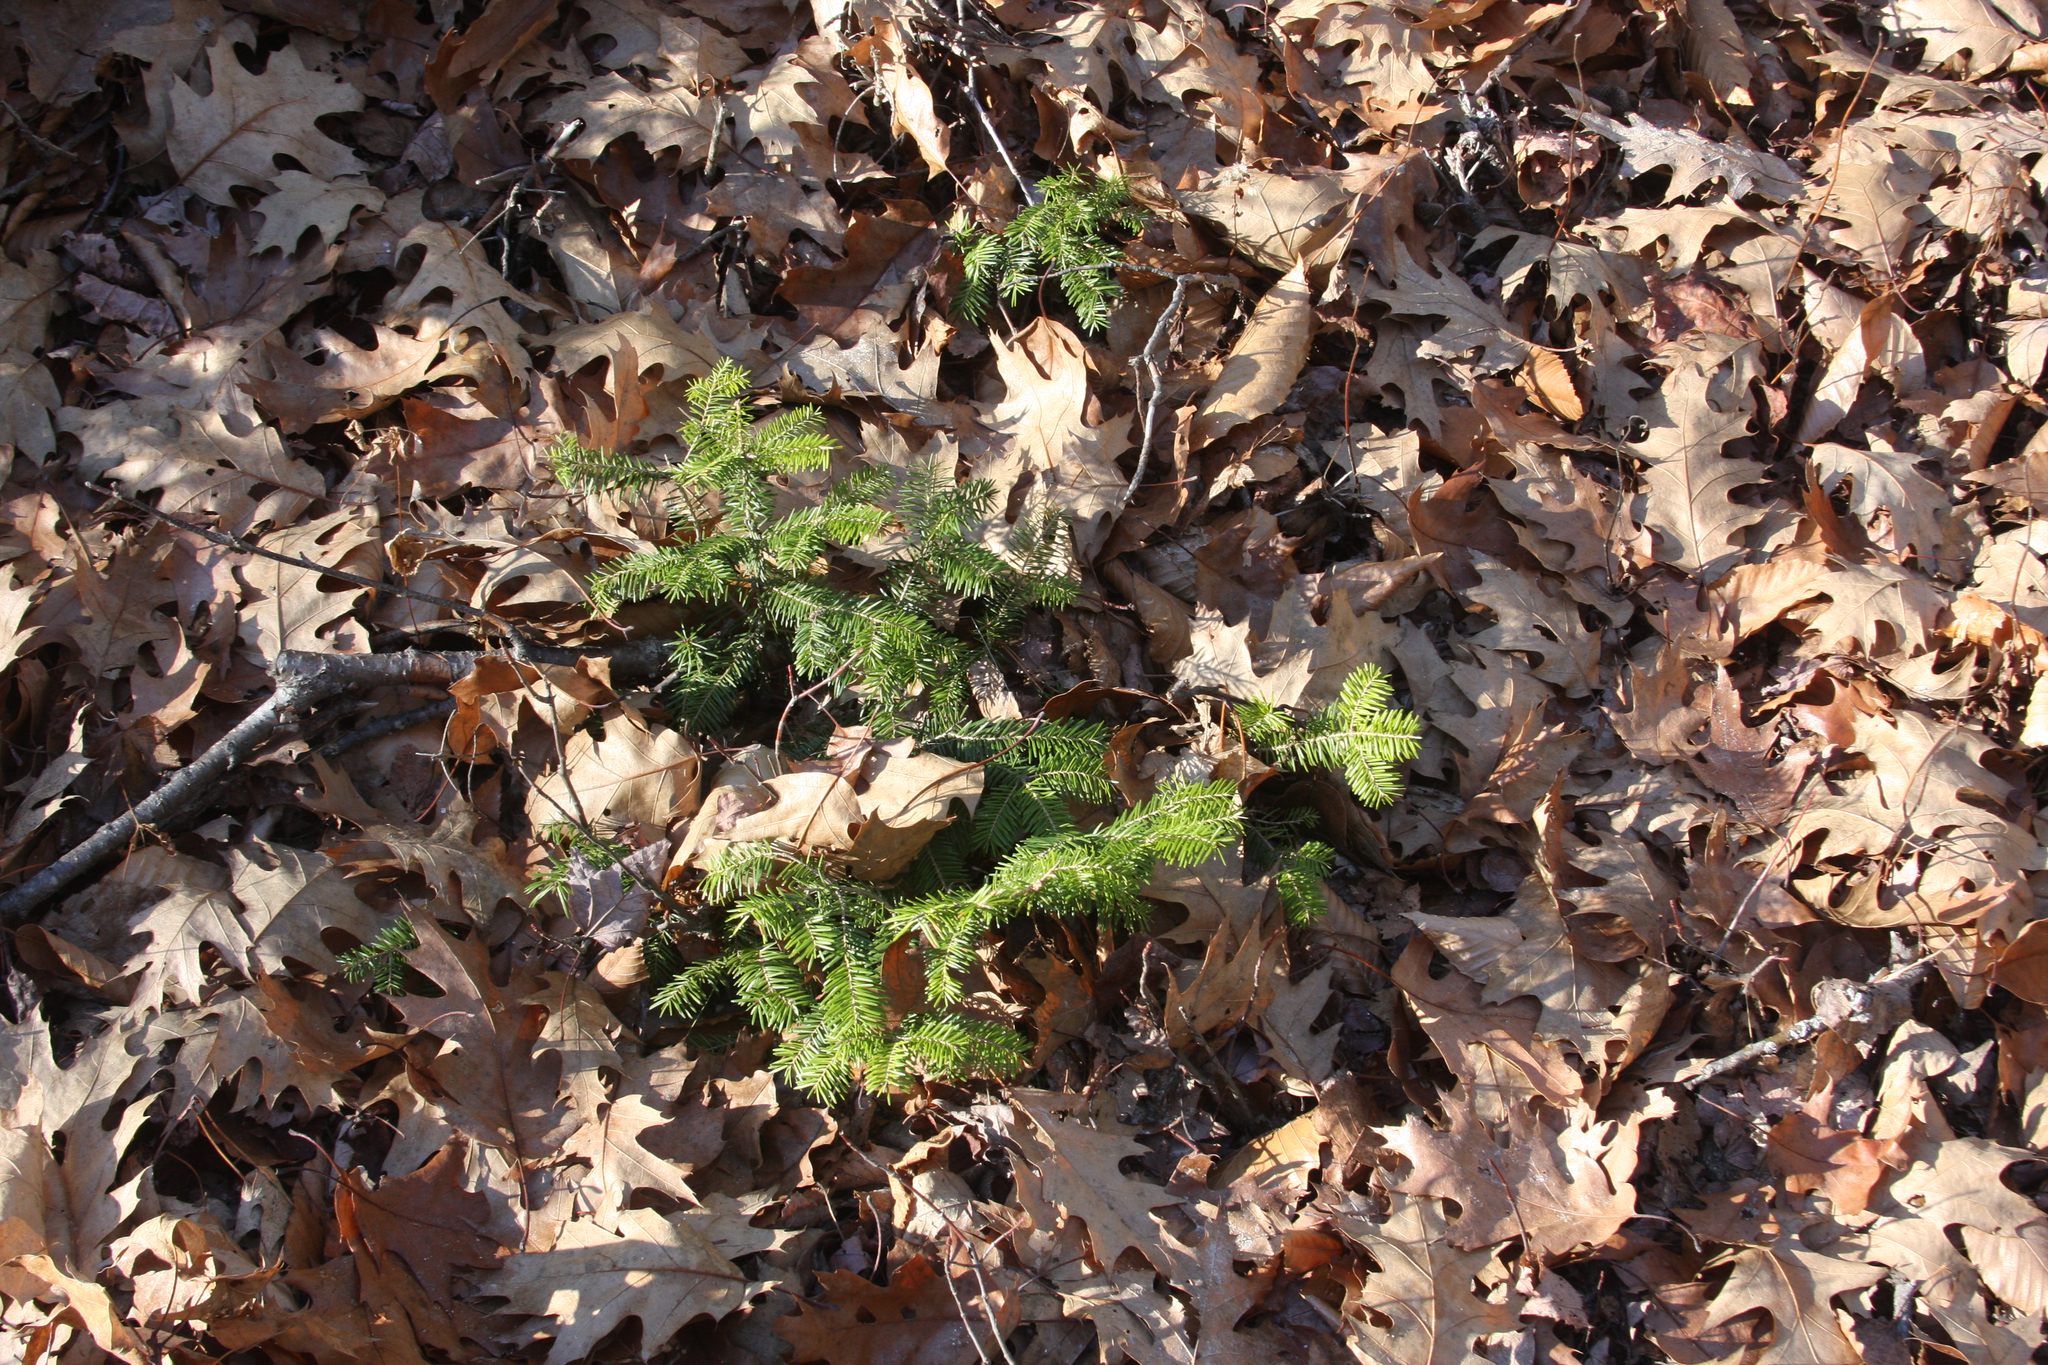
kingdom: Plantae
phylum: Tracheophyta
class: Pinopsida
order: Pinales
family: Pinaceae
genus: Abies
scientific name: Abies balsamea
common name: Balsam fir
